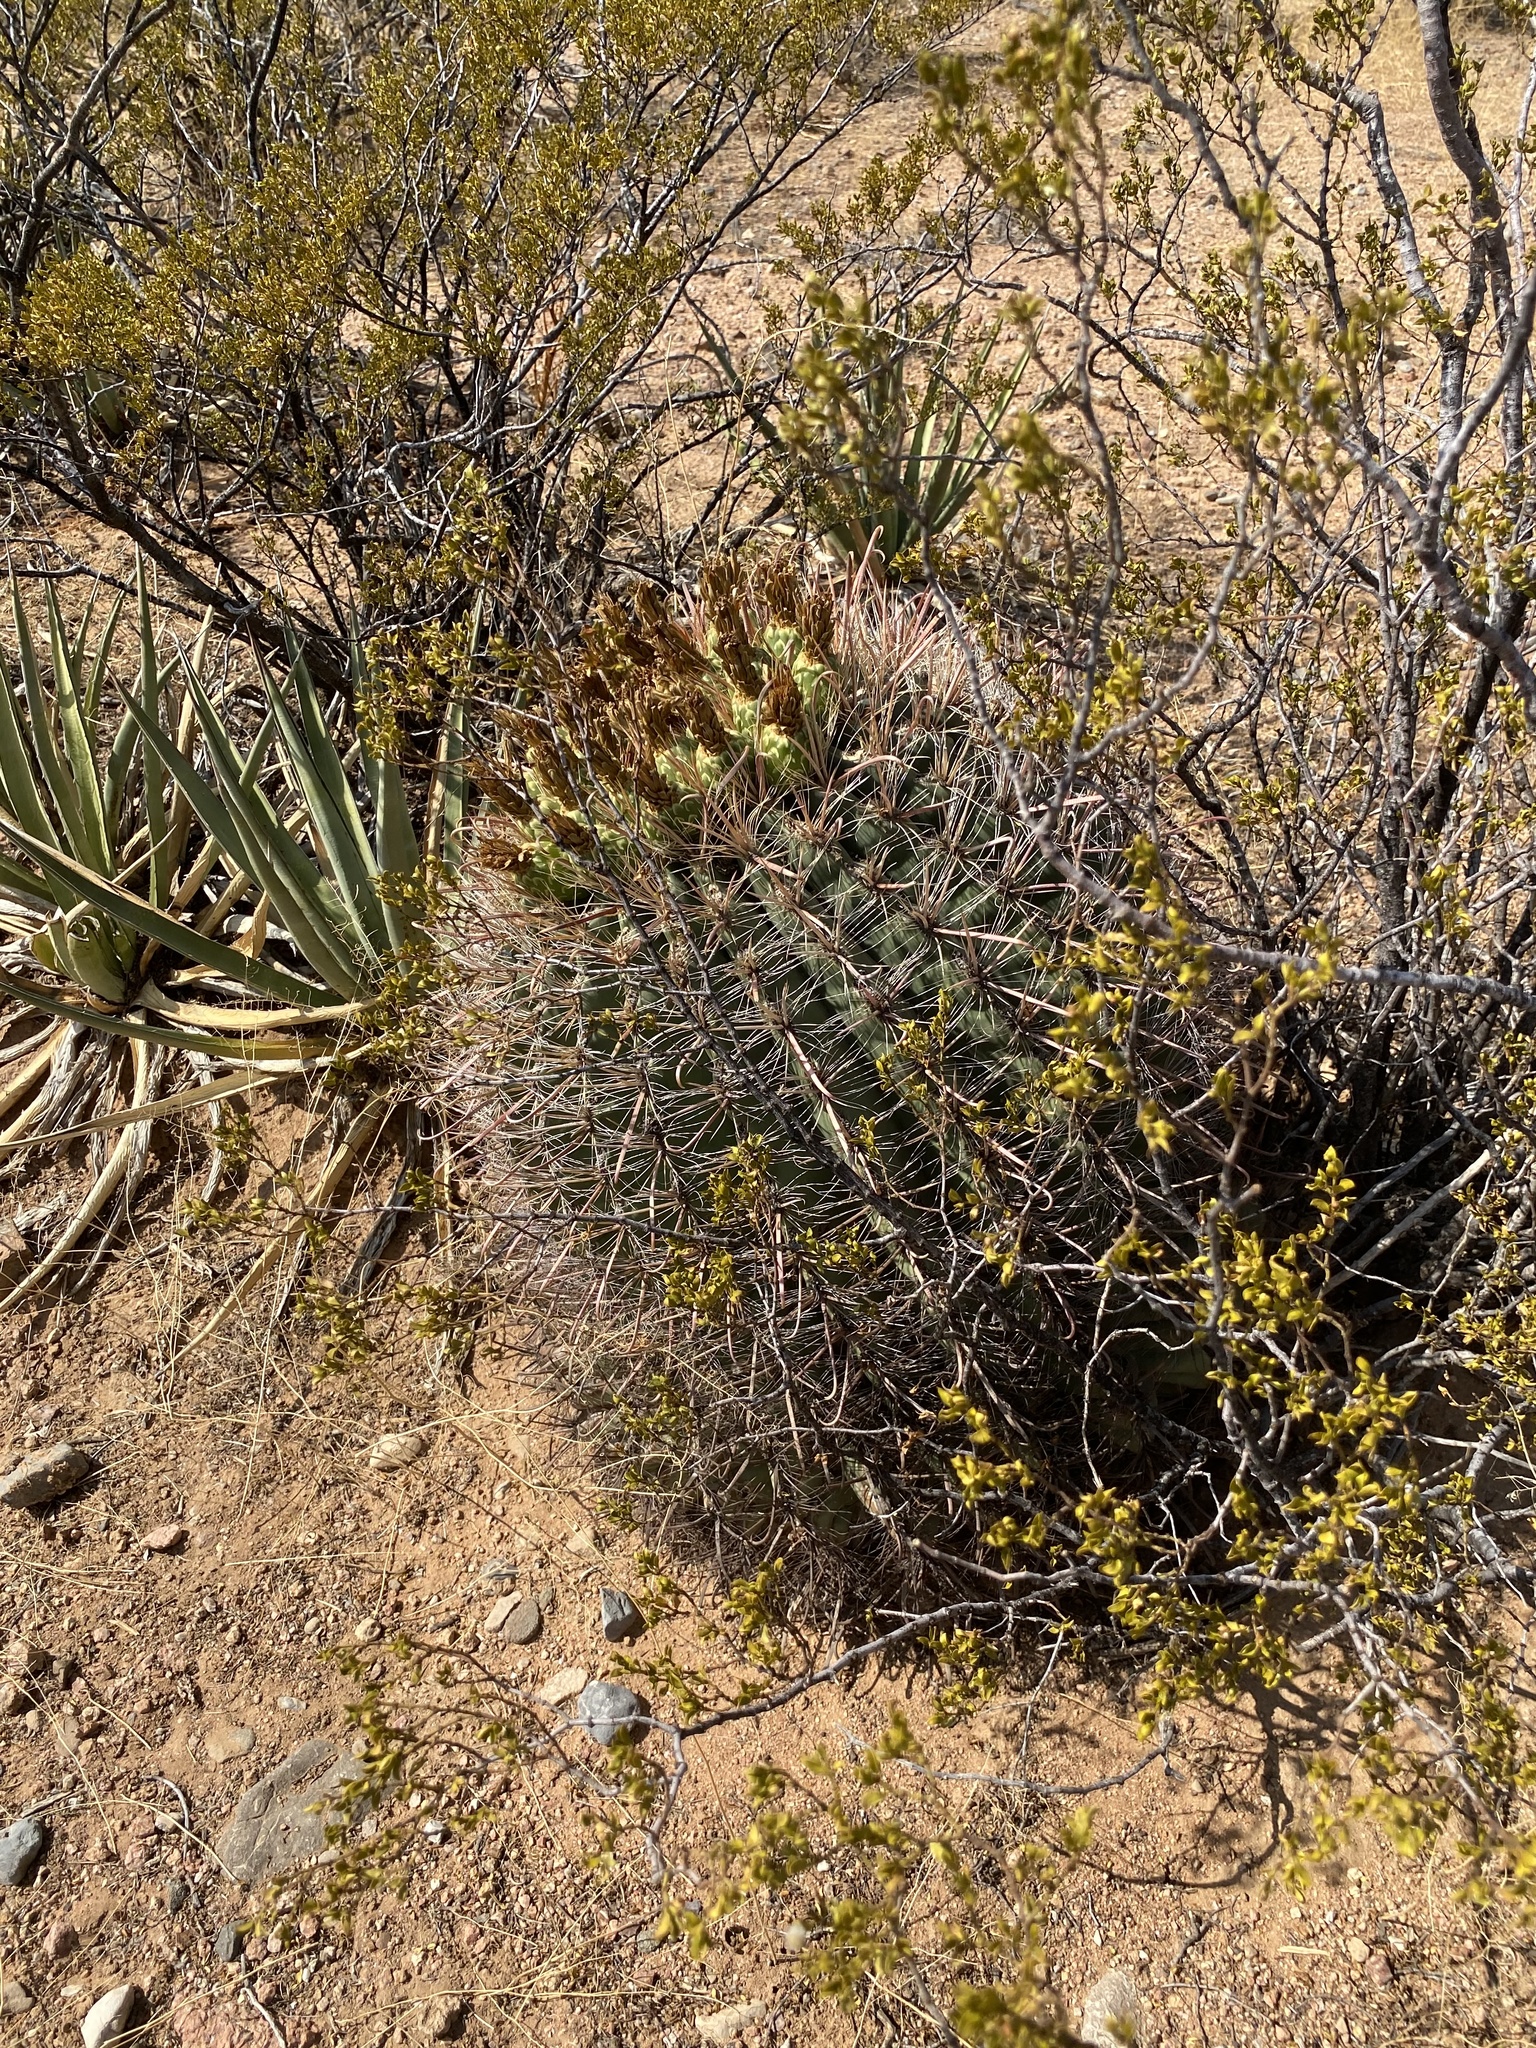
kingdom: Plantae
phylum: Tracheophyta
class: Magnoliopsida
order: Caryophyllales
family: Cactaceae
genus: Ferocactus
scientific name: Ferocactus wislizeni
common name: Candy barrel cactus
